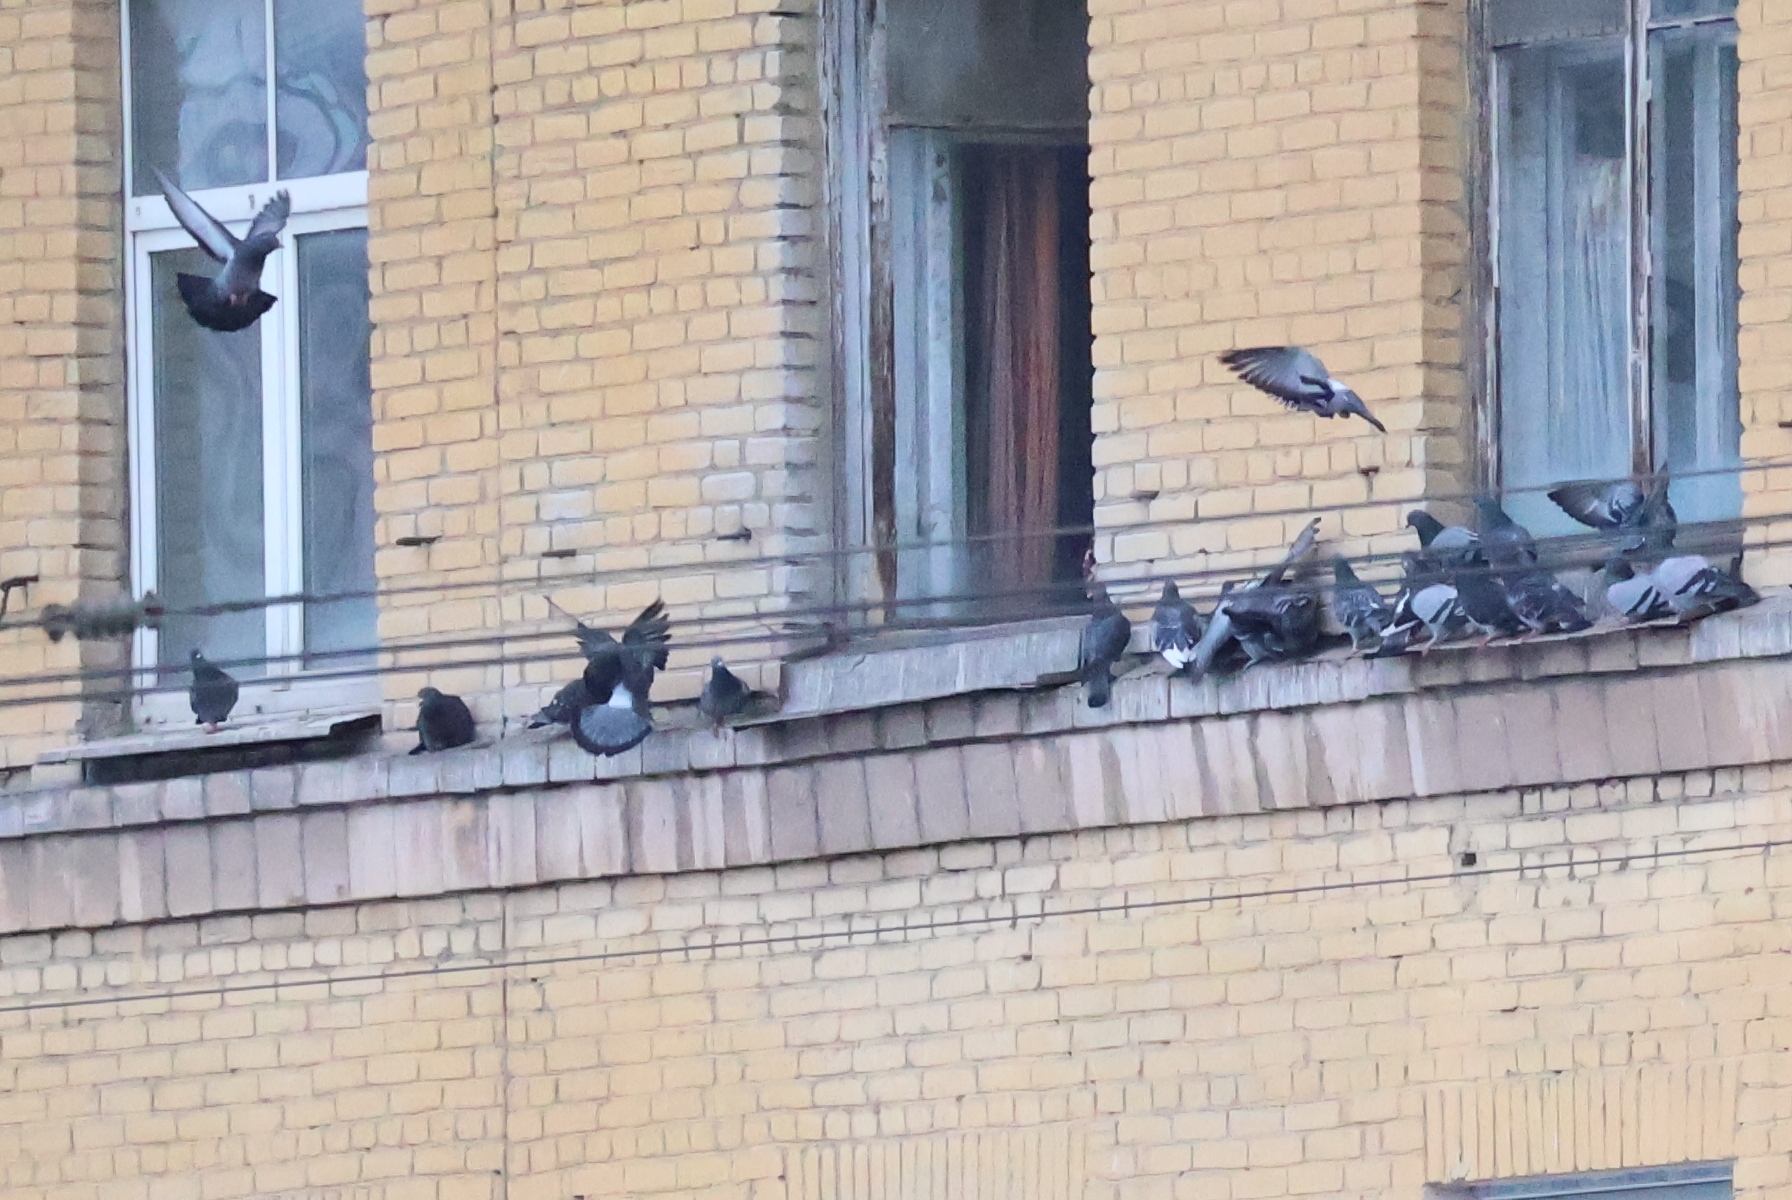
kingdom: Animalia
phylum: Chordata
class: Aves
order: Columbiformes
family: Columbidae
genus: Columba
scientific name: Columba livia
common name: Rock pigeon
